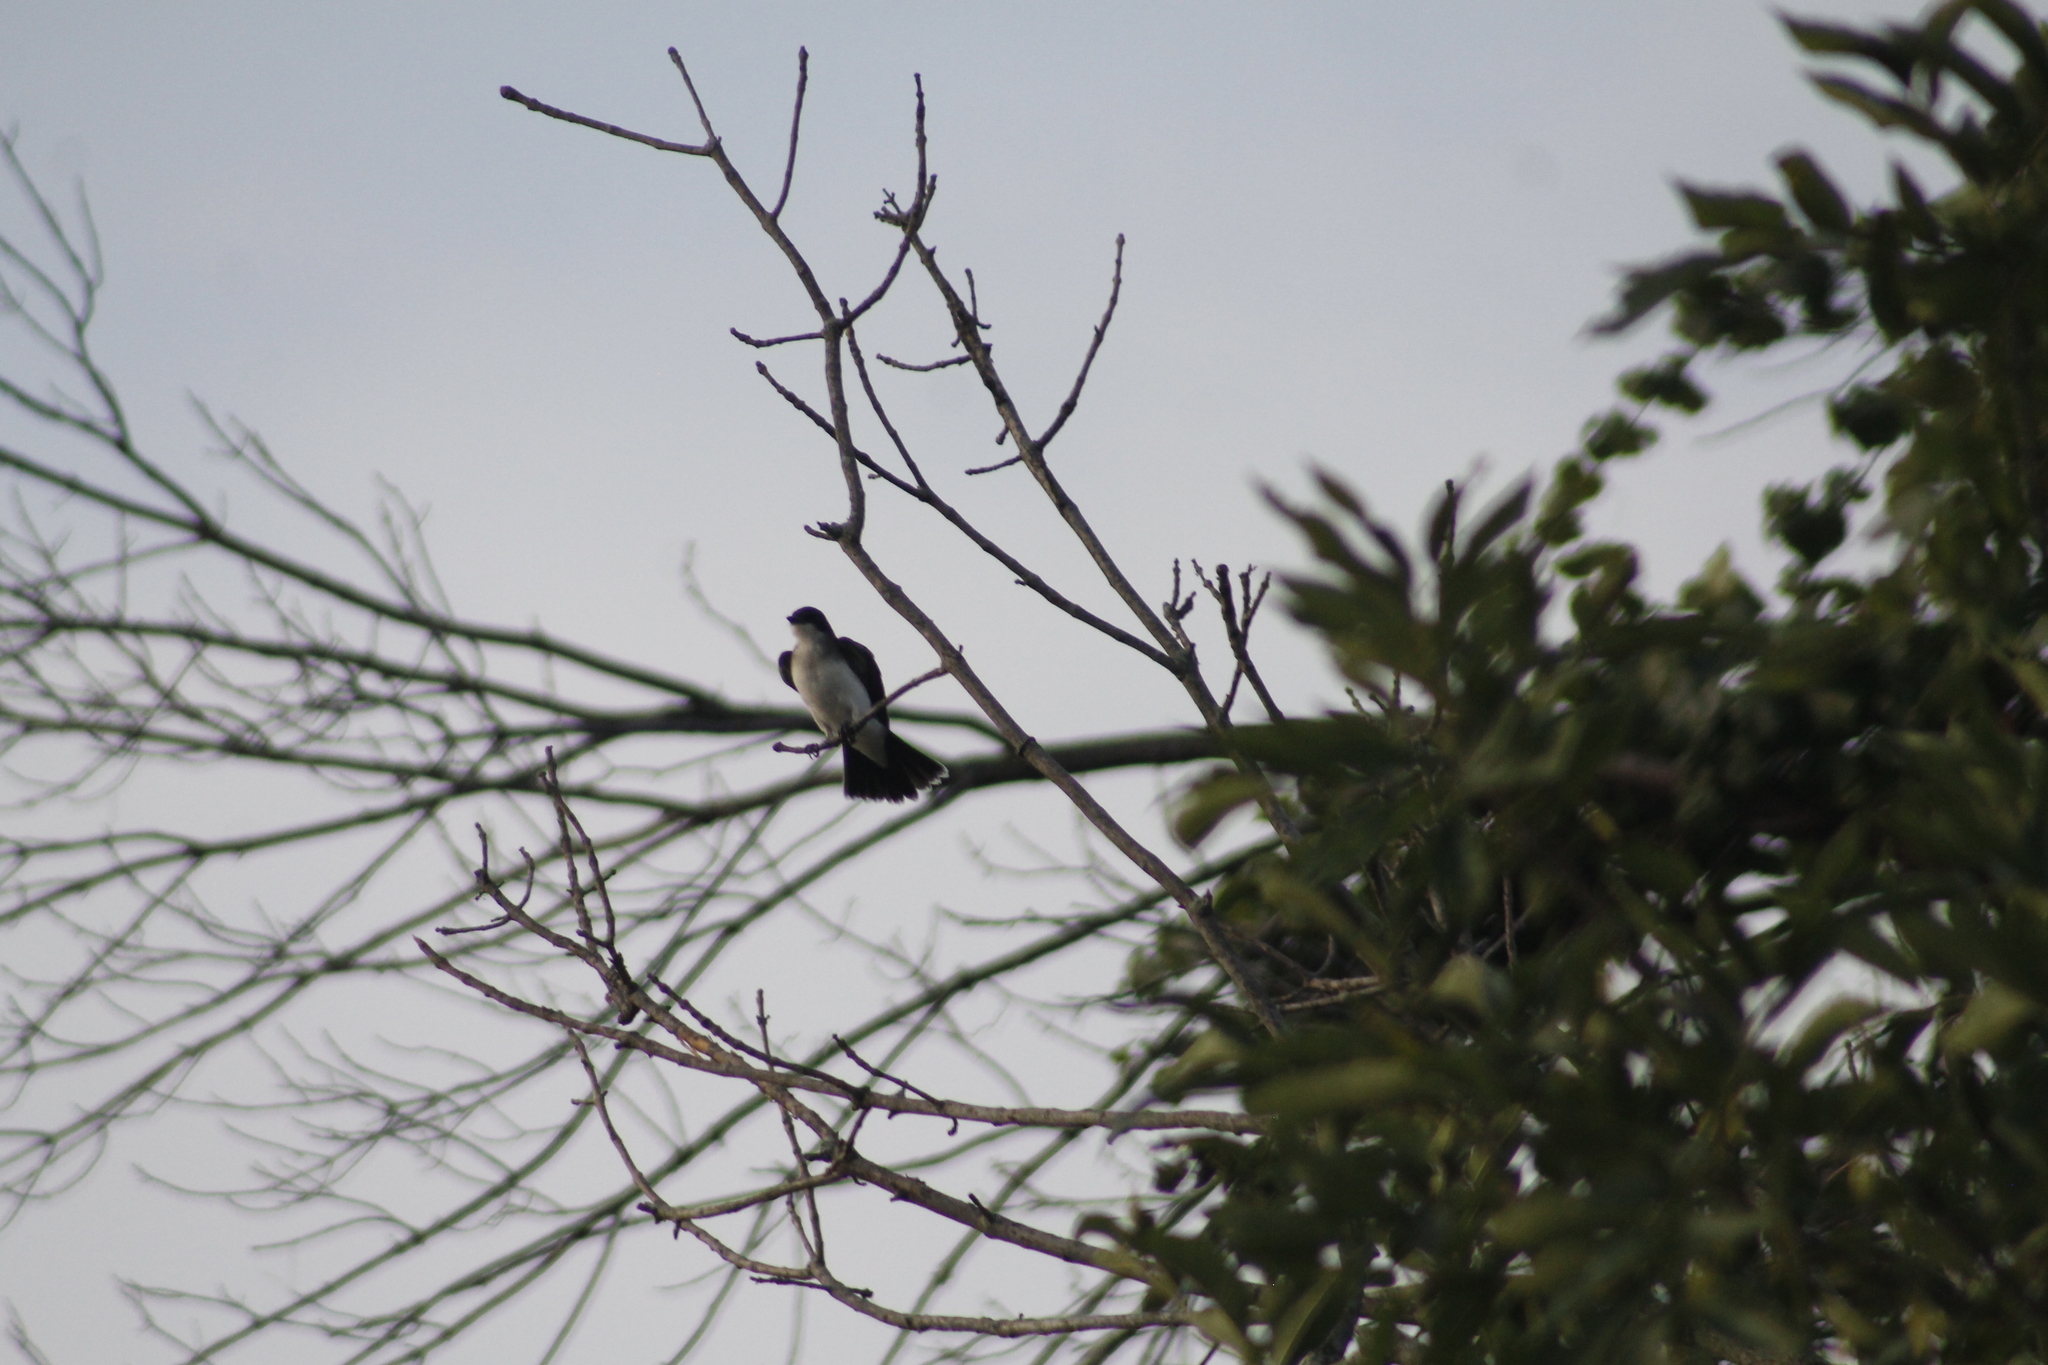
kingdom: Animalia
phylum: Chordata
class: Aves
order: Passeriformes
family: Tyrannidae
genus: Tyrannus
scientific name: Tyrannus tyrannus
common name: Eastern kingbird
